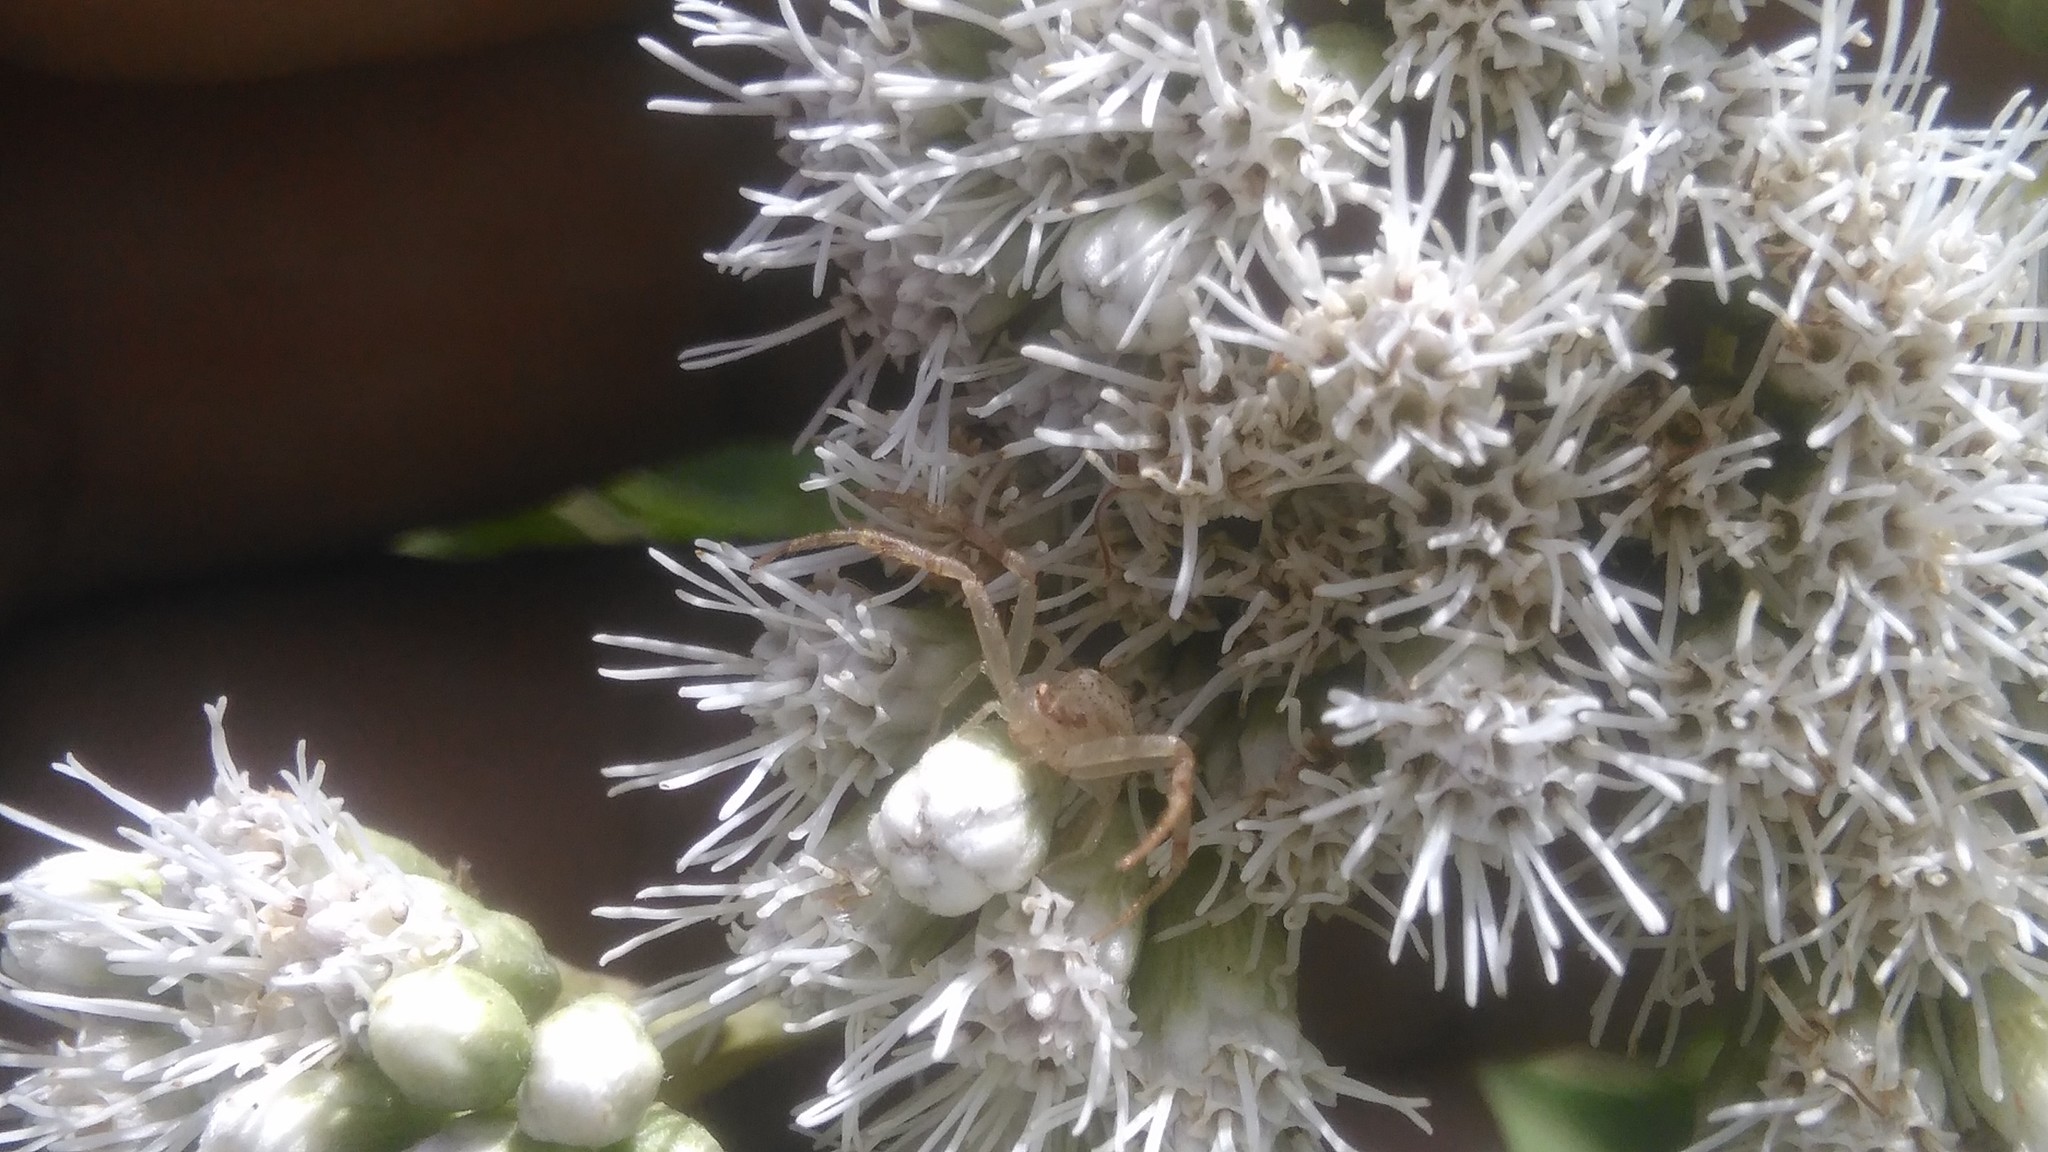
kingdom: Animalia
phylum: Arthropoda
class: Arachnida
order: Araneae
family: Thomisidae
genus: Misumenops
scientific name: Misumenops
